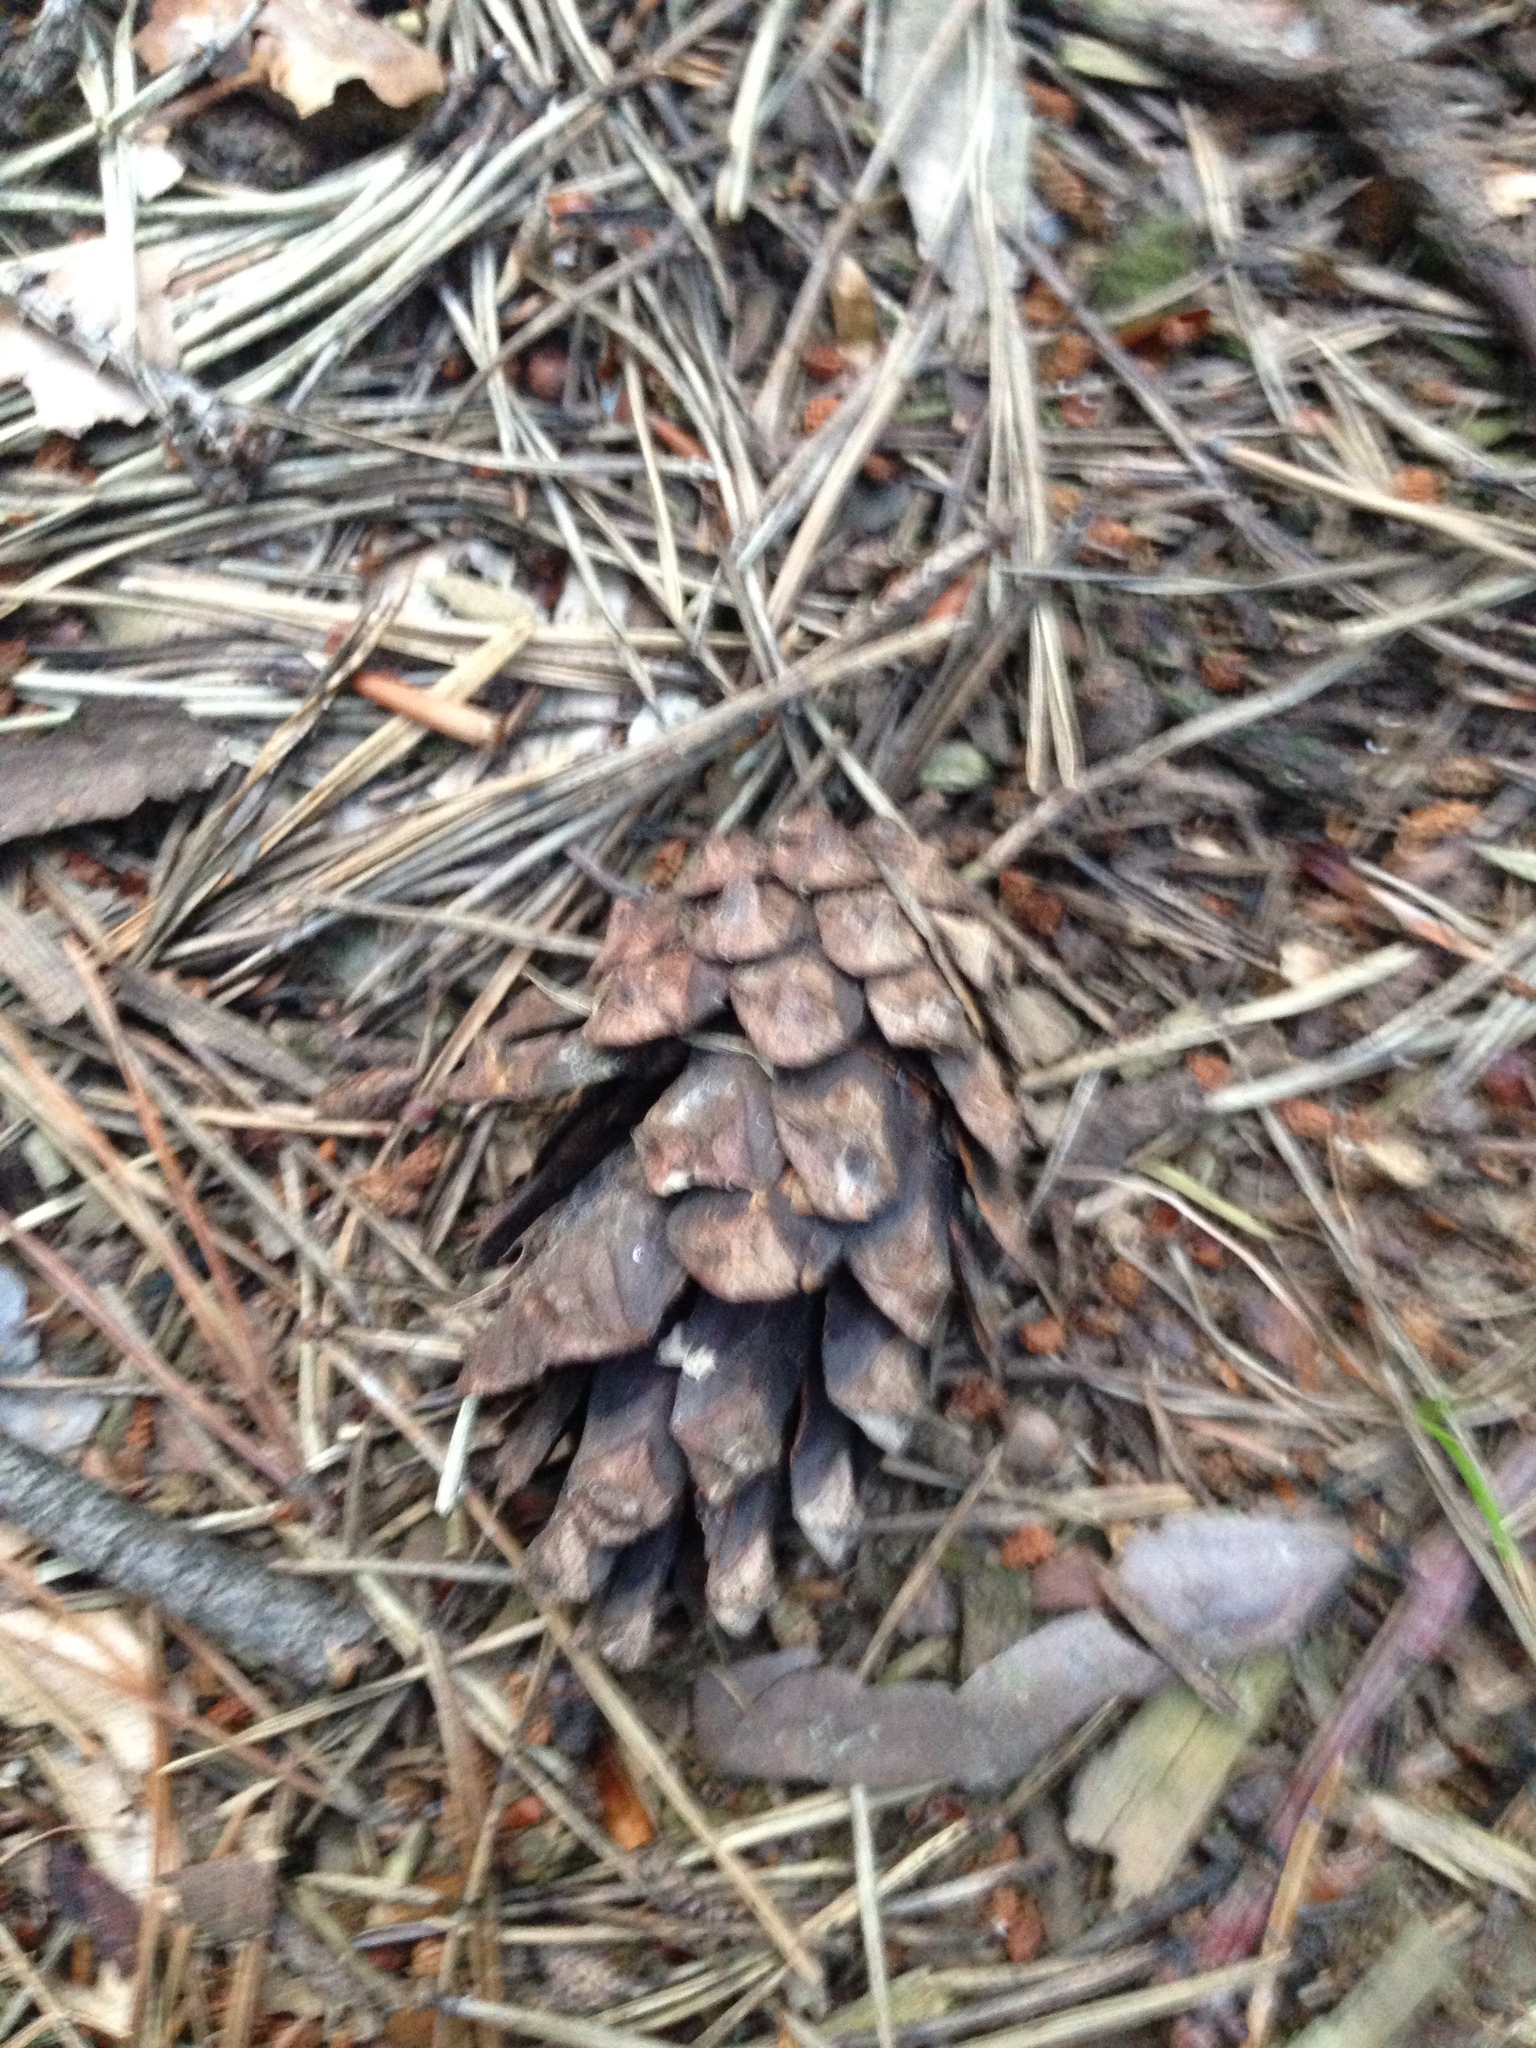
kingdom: Plantae
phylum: Tracheophyta
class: Pinopsida
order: Pinales
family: Pinaceae
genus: Pinus
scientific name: Pinus sylvestris
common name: Scots pine
